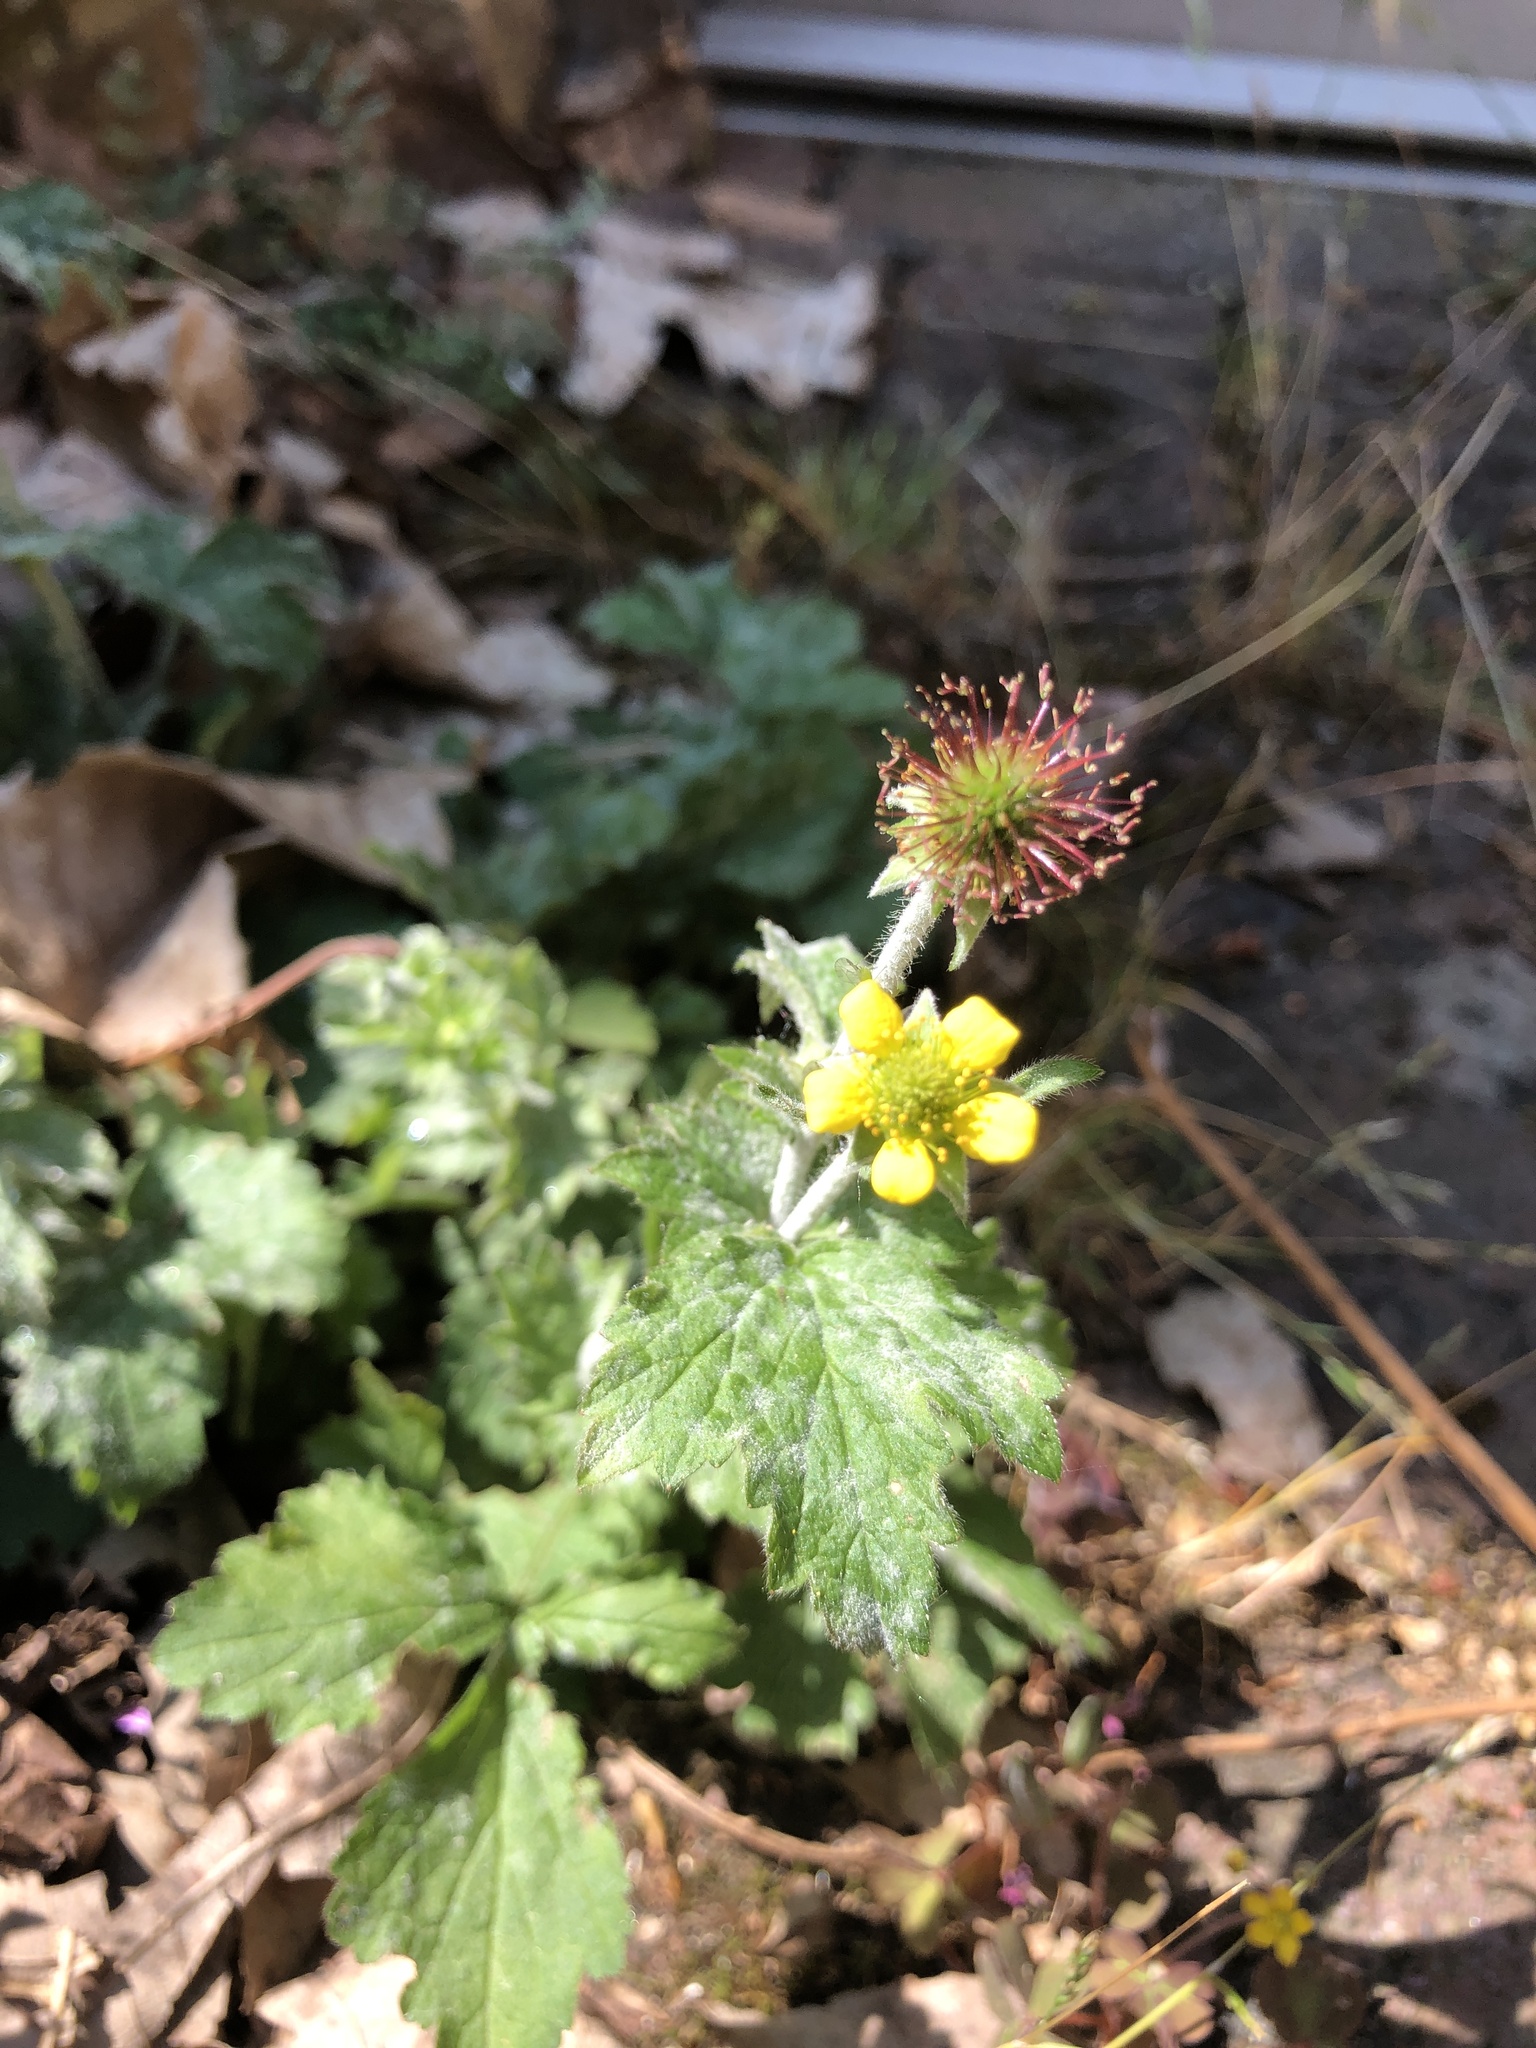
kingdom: Plantae
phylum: Tracheophyta
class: Magnoliopsida
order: Rosales
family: Rosaceae
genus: Geum
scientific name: Geum urbanum
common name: Wood avens
